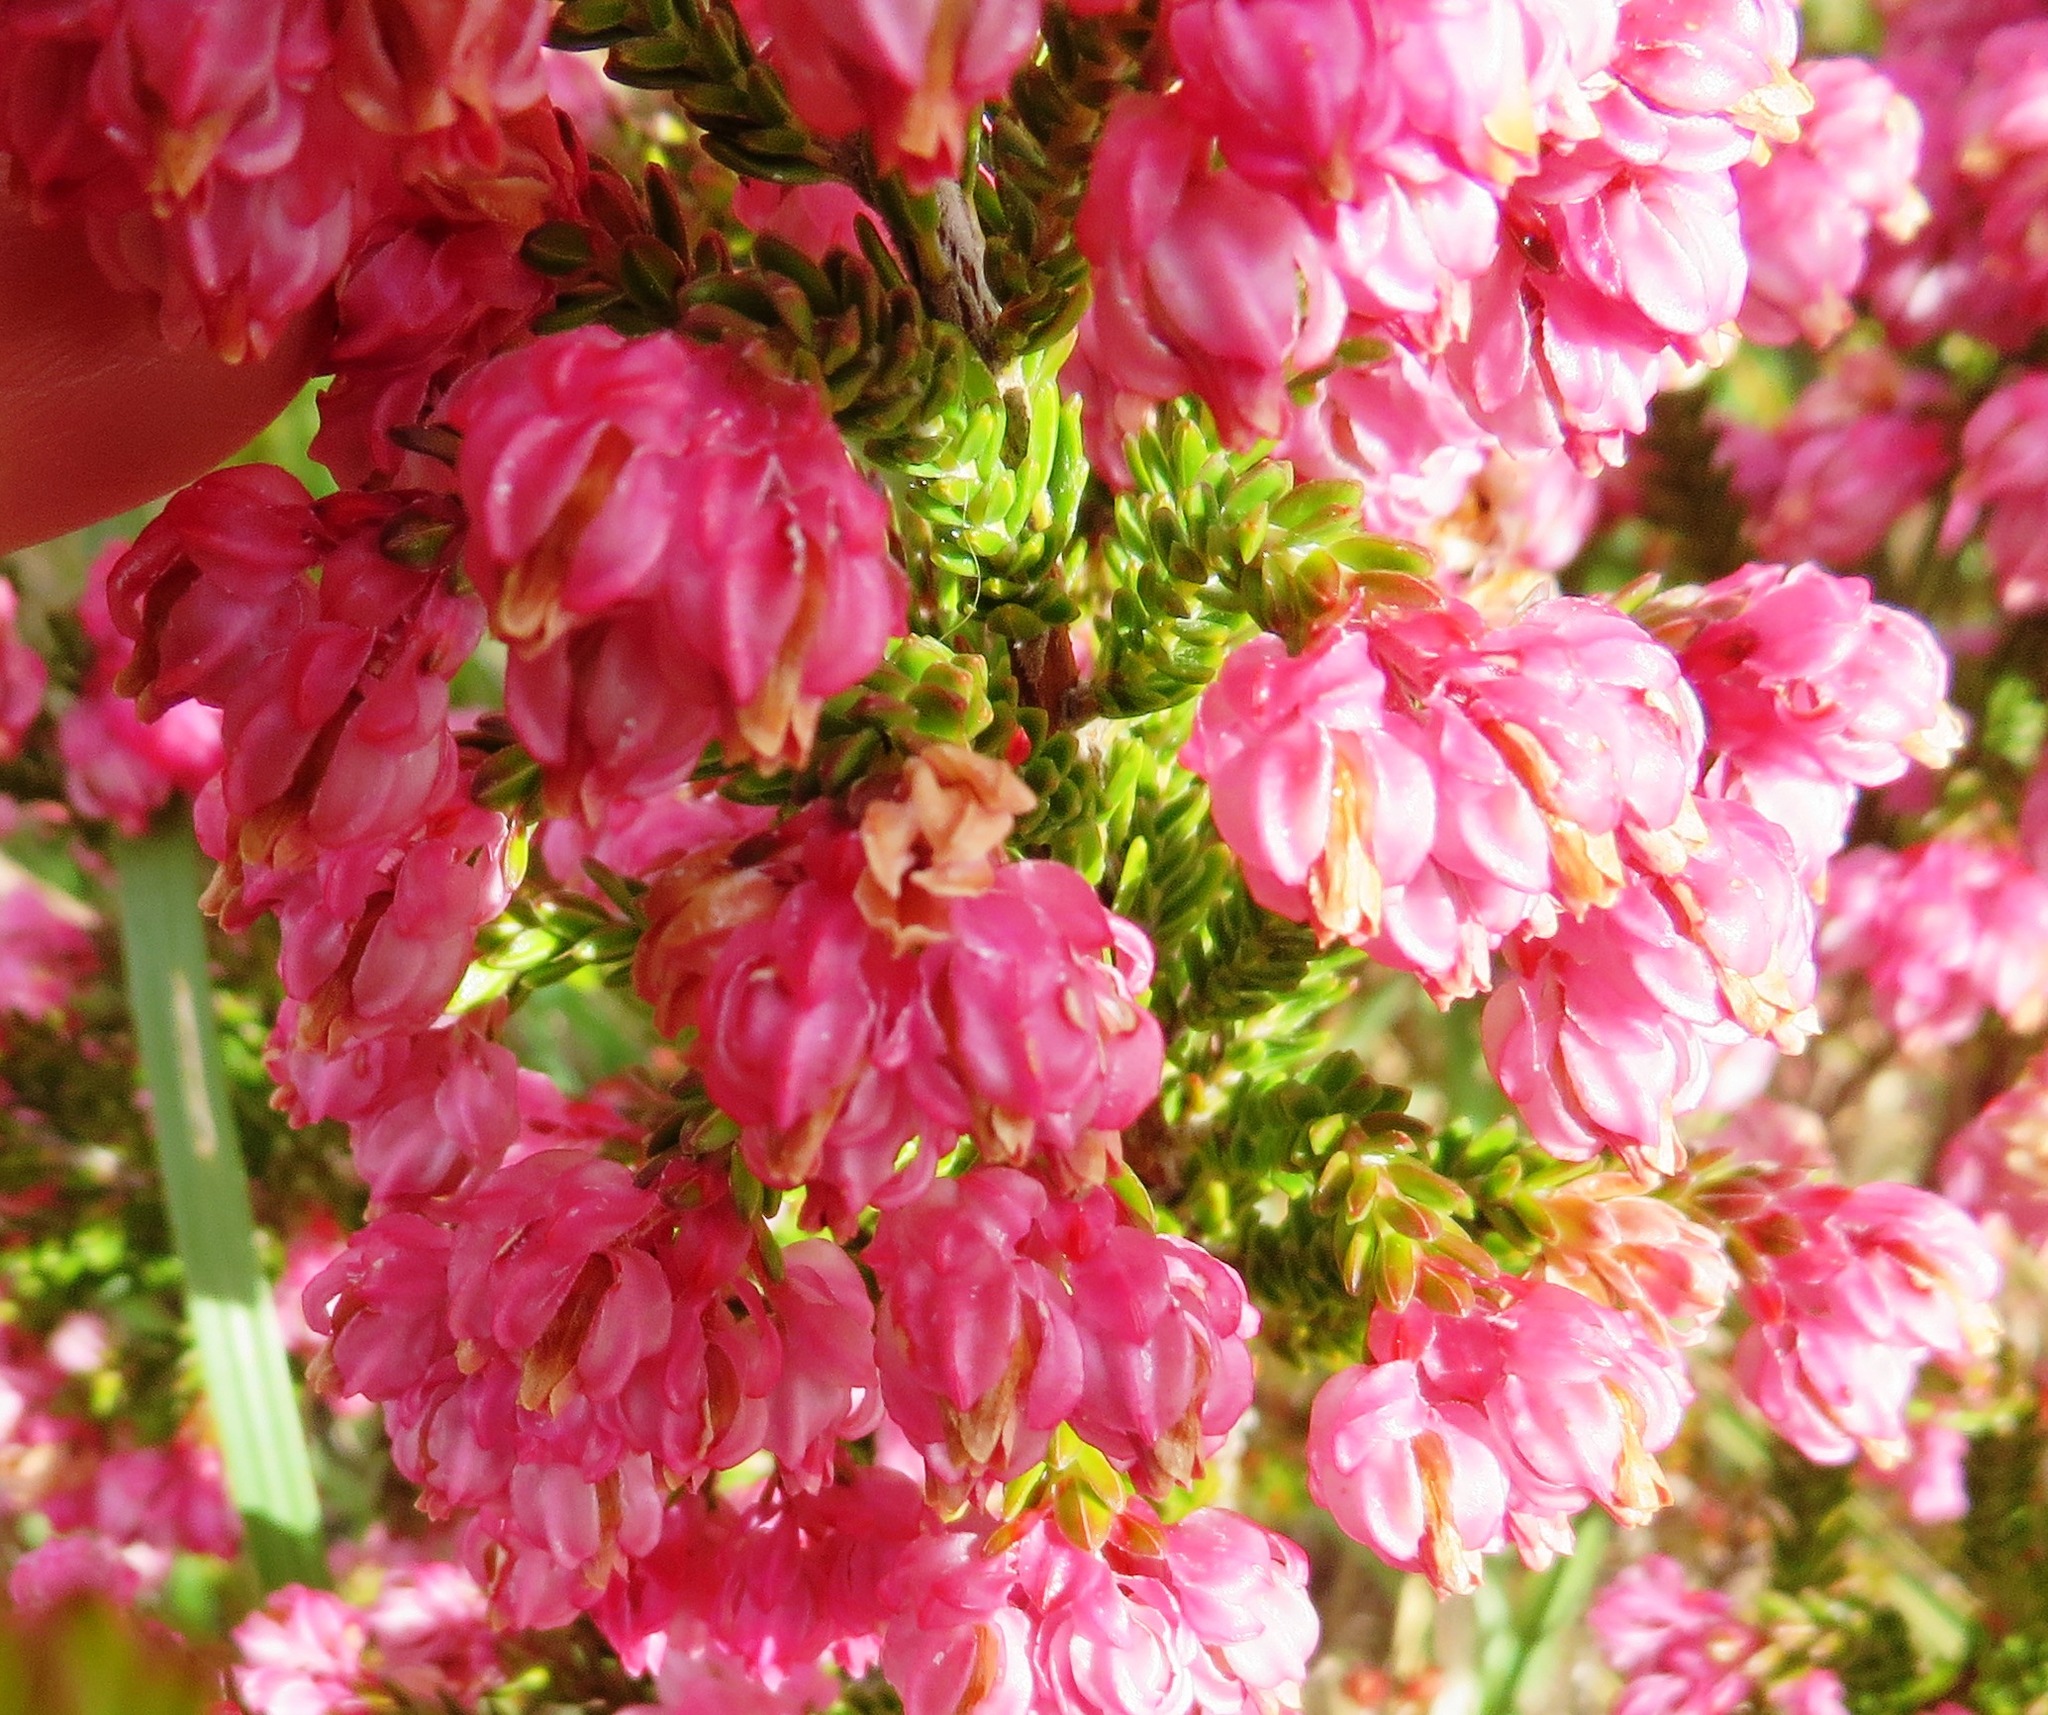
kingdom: Plantae
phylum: Tracheophyta
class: Magnoliopsida
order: Ericales
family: Ericaceae
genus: Erica
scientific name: Erica tegulifolia
